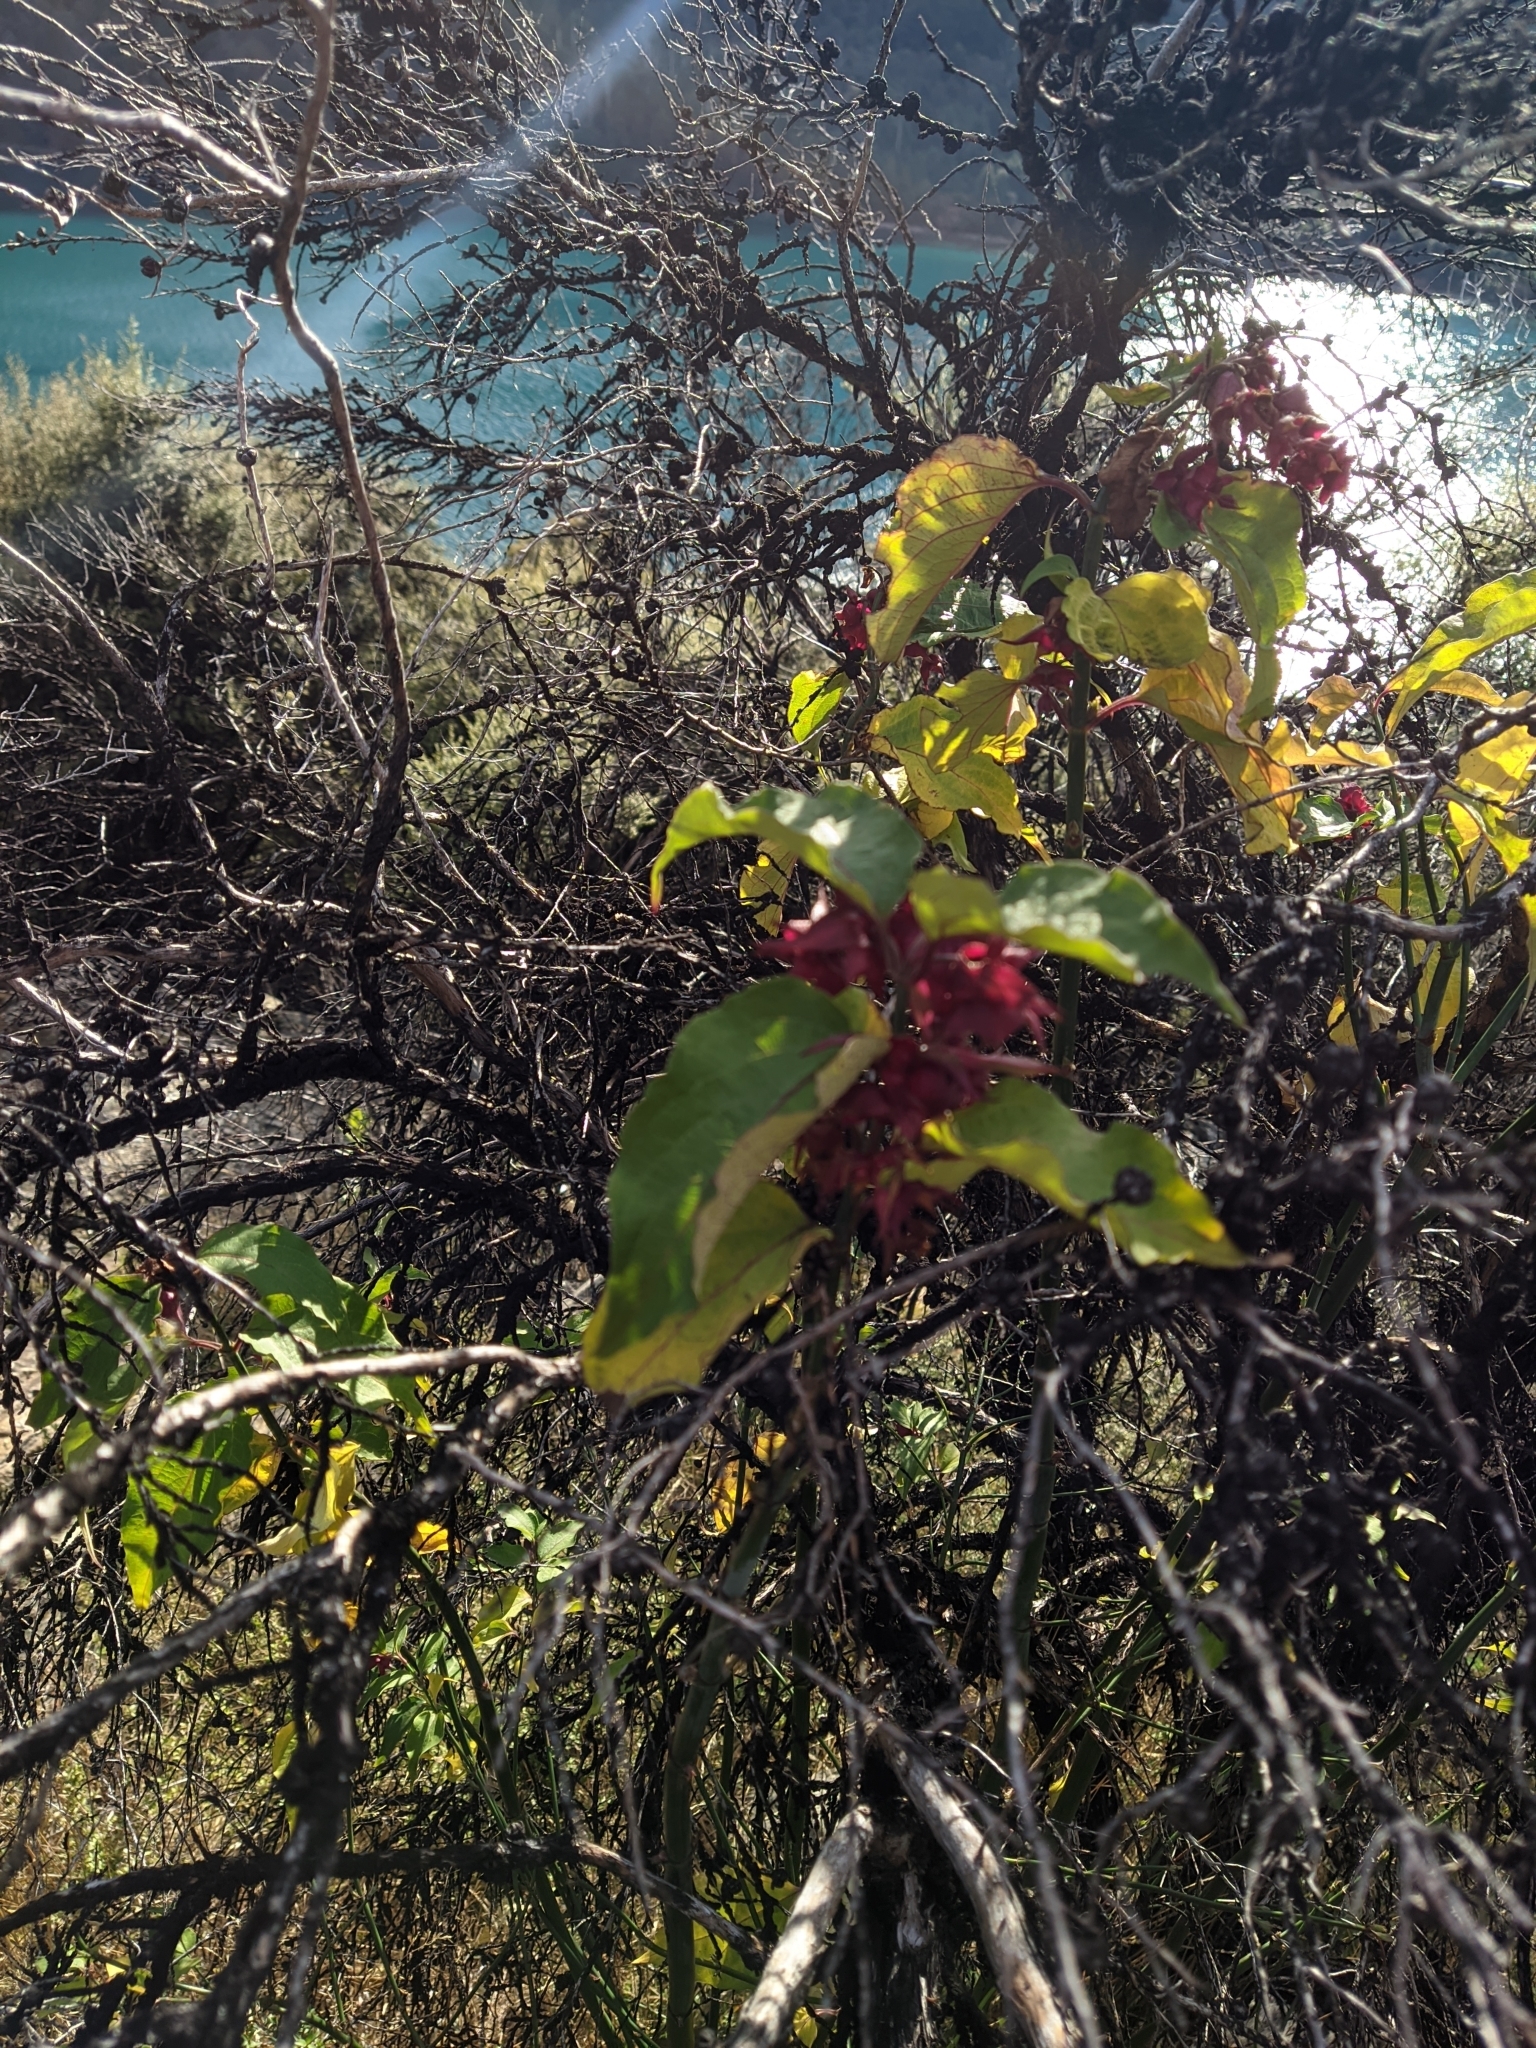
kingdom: Plantae
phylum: Tracheophyta
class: Magnoliopsida
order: Dipsacales
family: Caprifoliaceae
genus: Leycesteria
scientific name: Leycesteria formosa
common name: Himalayan honeysuckle
